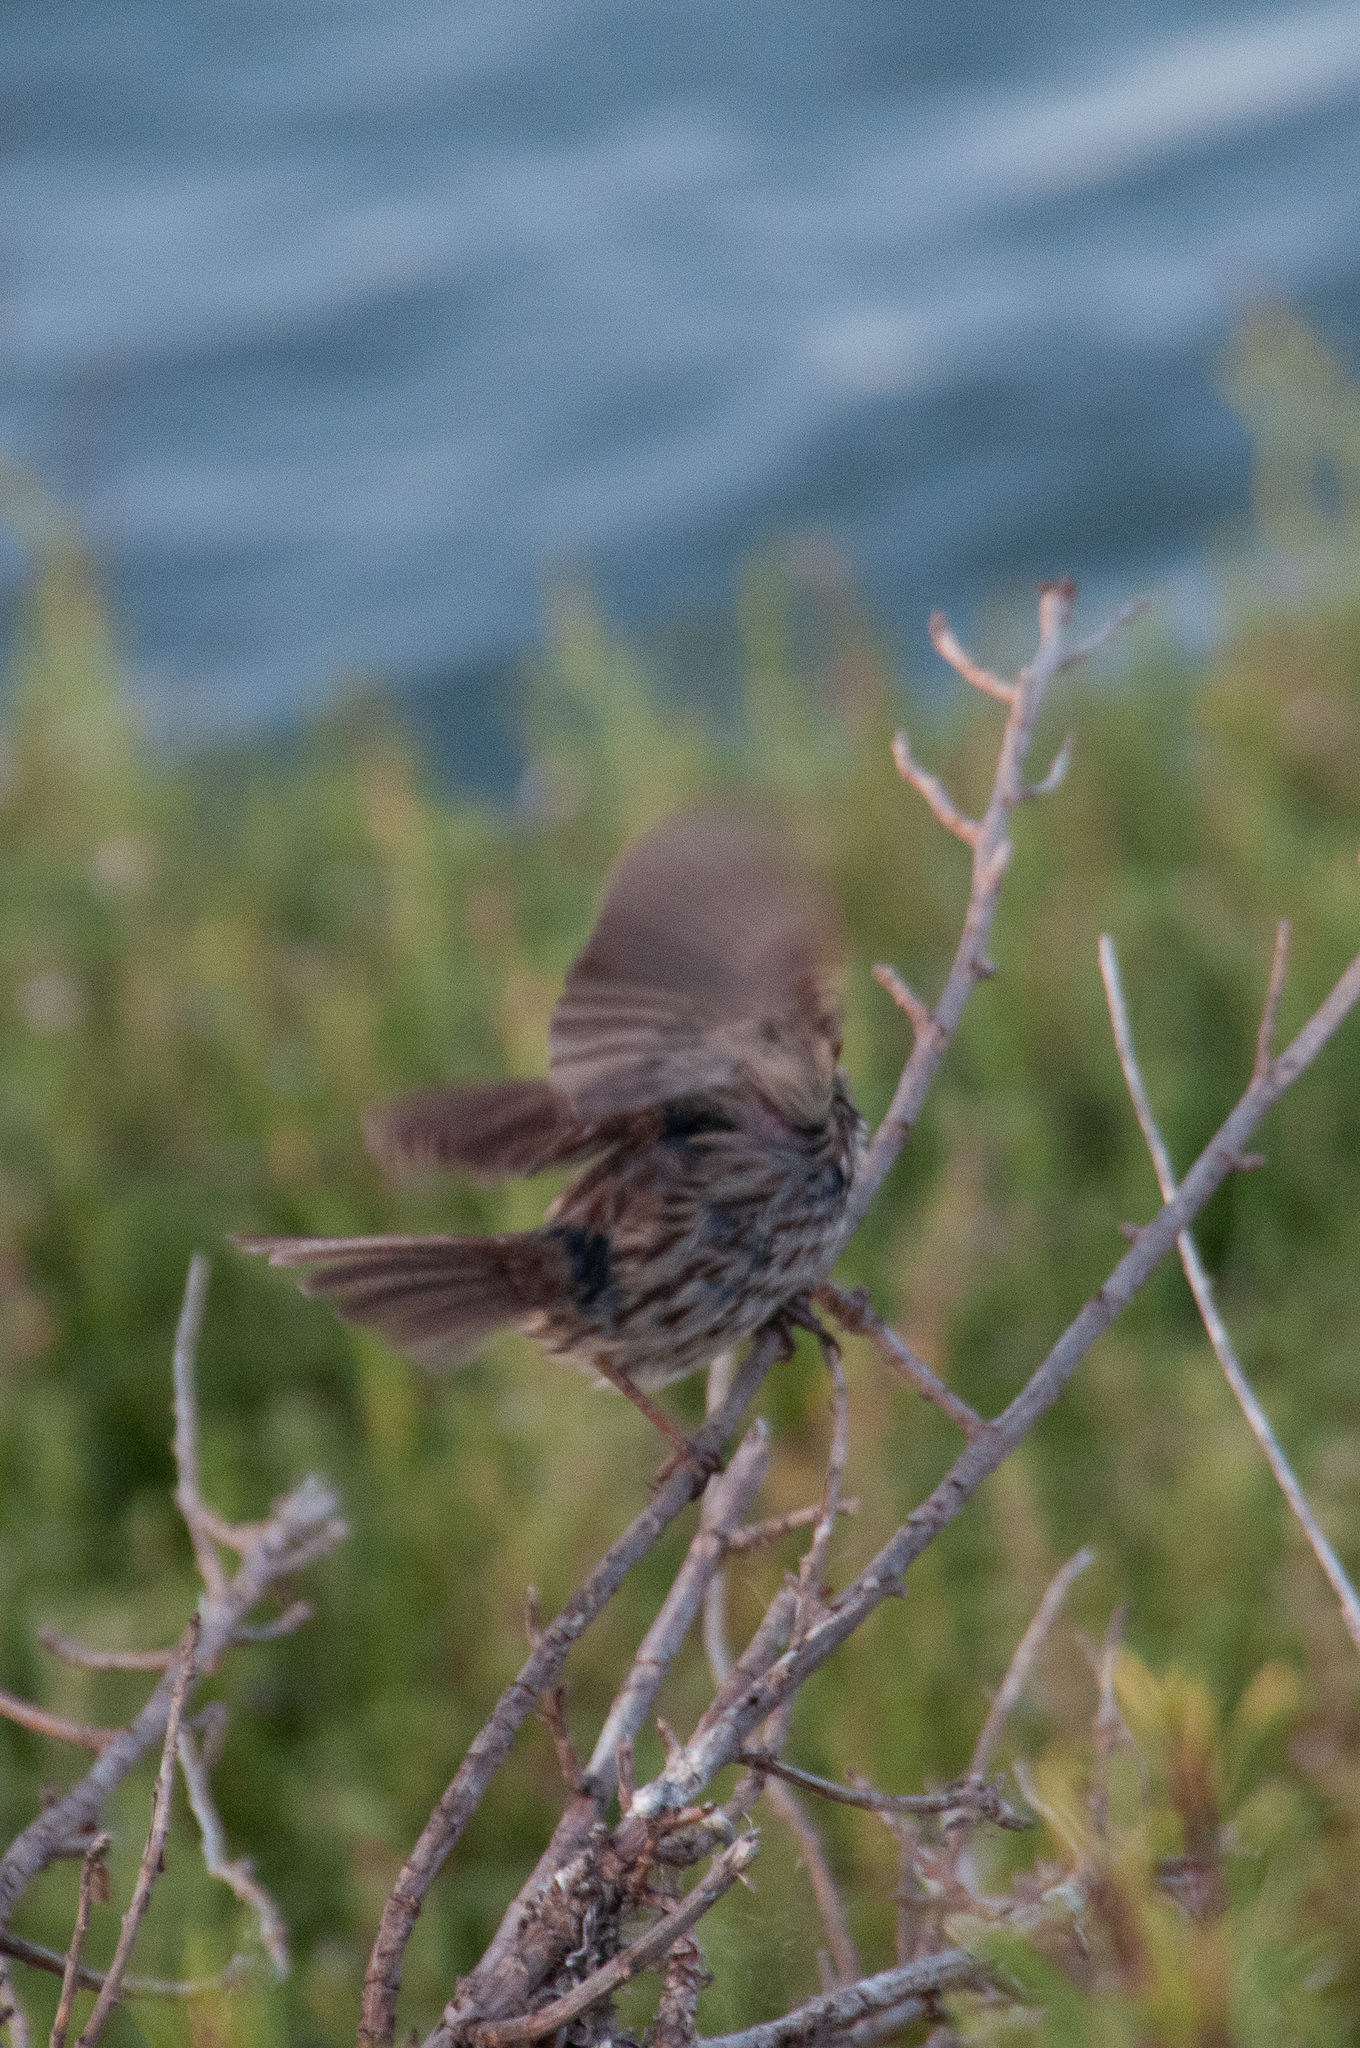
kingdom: Animalia
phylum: Chordata
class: Aves
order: Passeriformes
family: Passerellidae
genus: Melospiza
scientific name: Melospiza melodia
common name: Song sparrow
